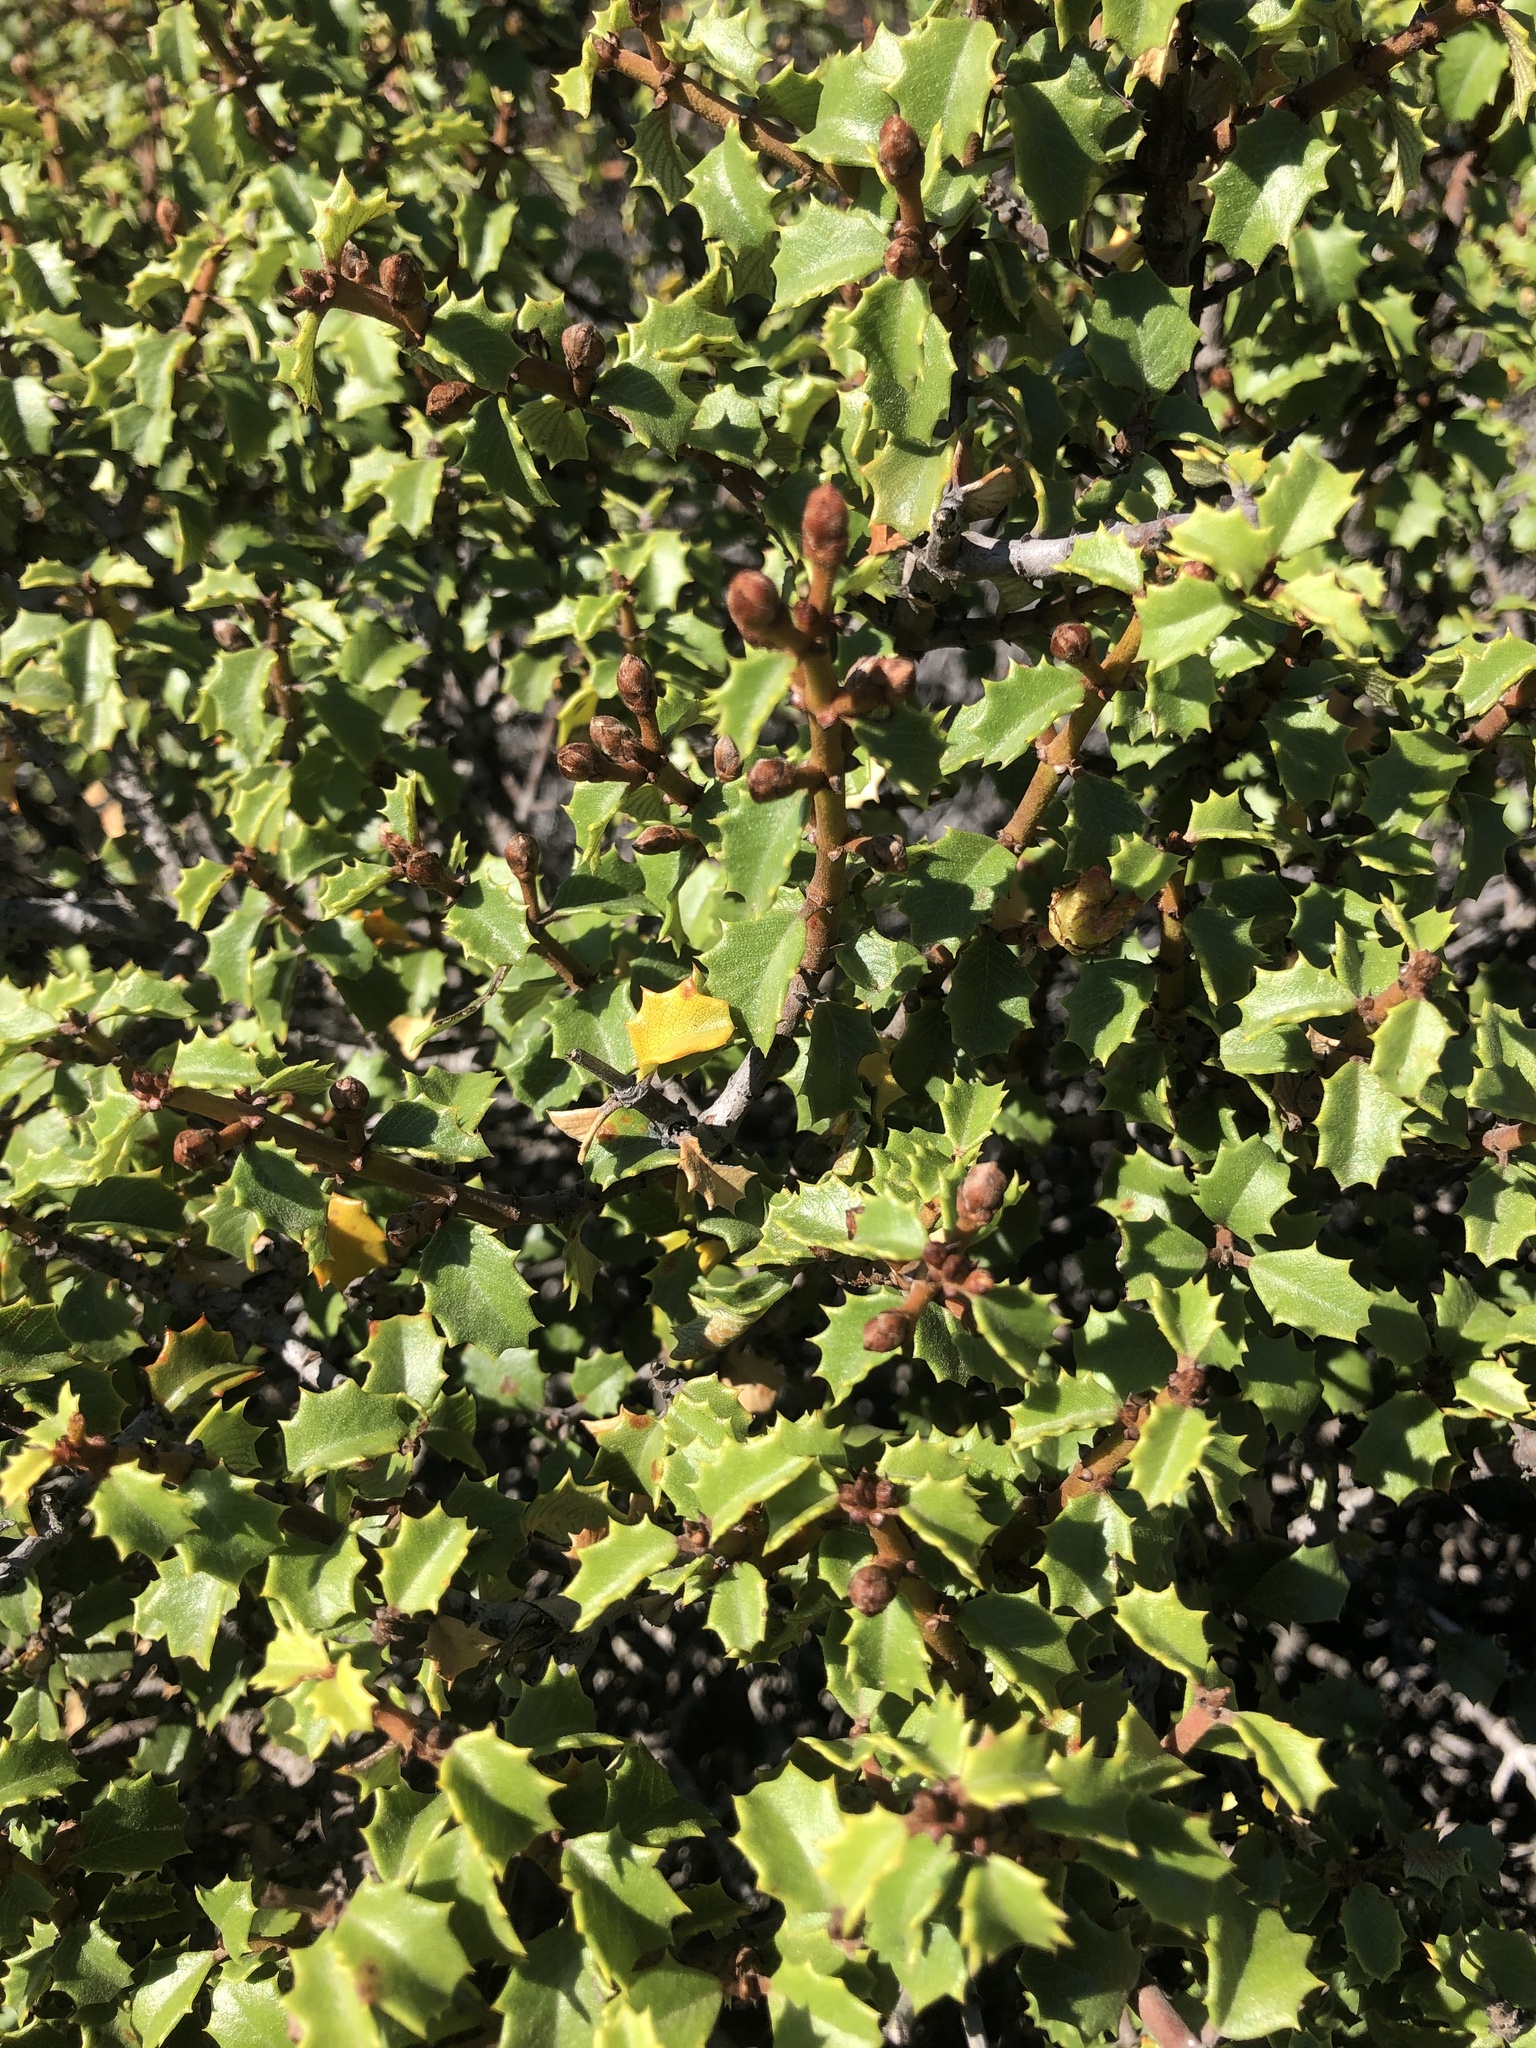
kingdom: Plantae
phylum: Tracheophyta
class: Magnoliopsida
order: Rosales
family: Rhamnaceae
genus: Ceanothus
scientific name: Ceanothus jepsonii
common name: Muskbrush
